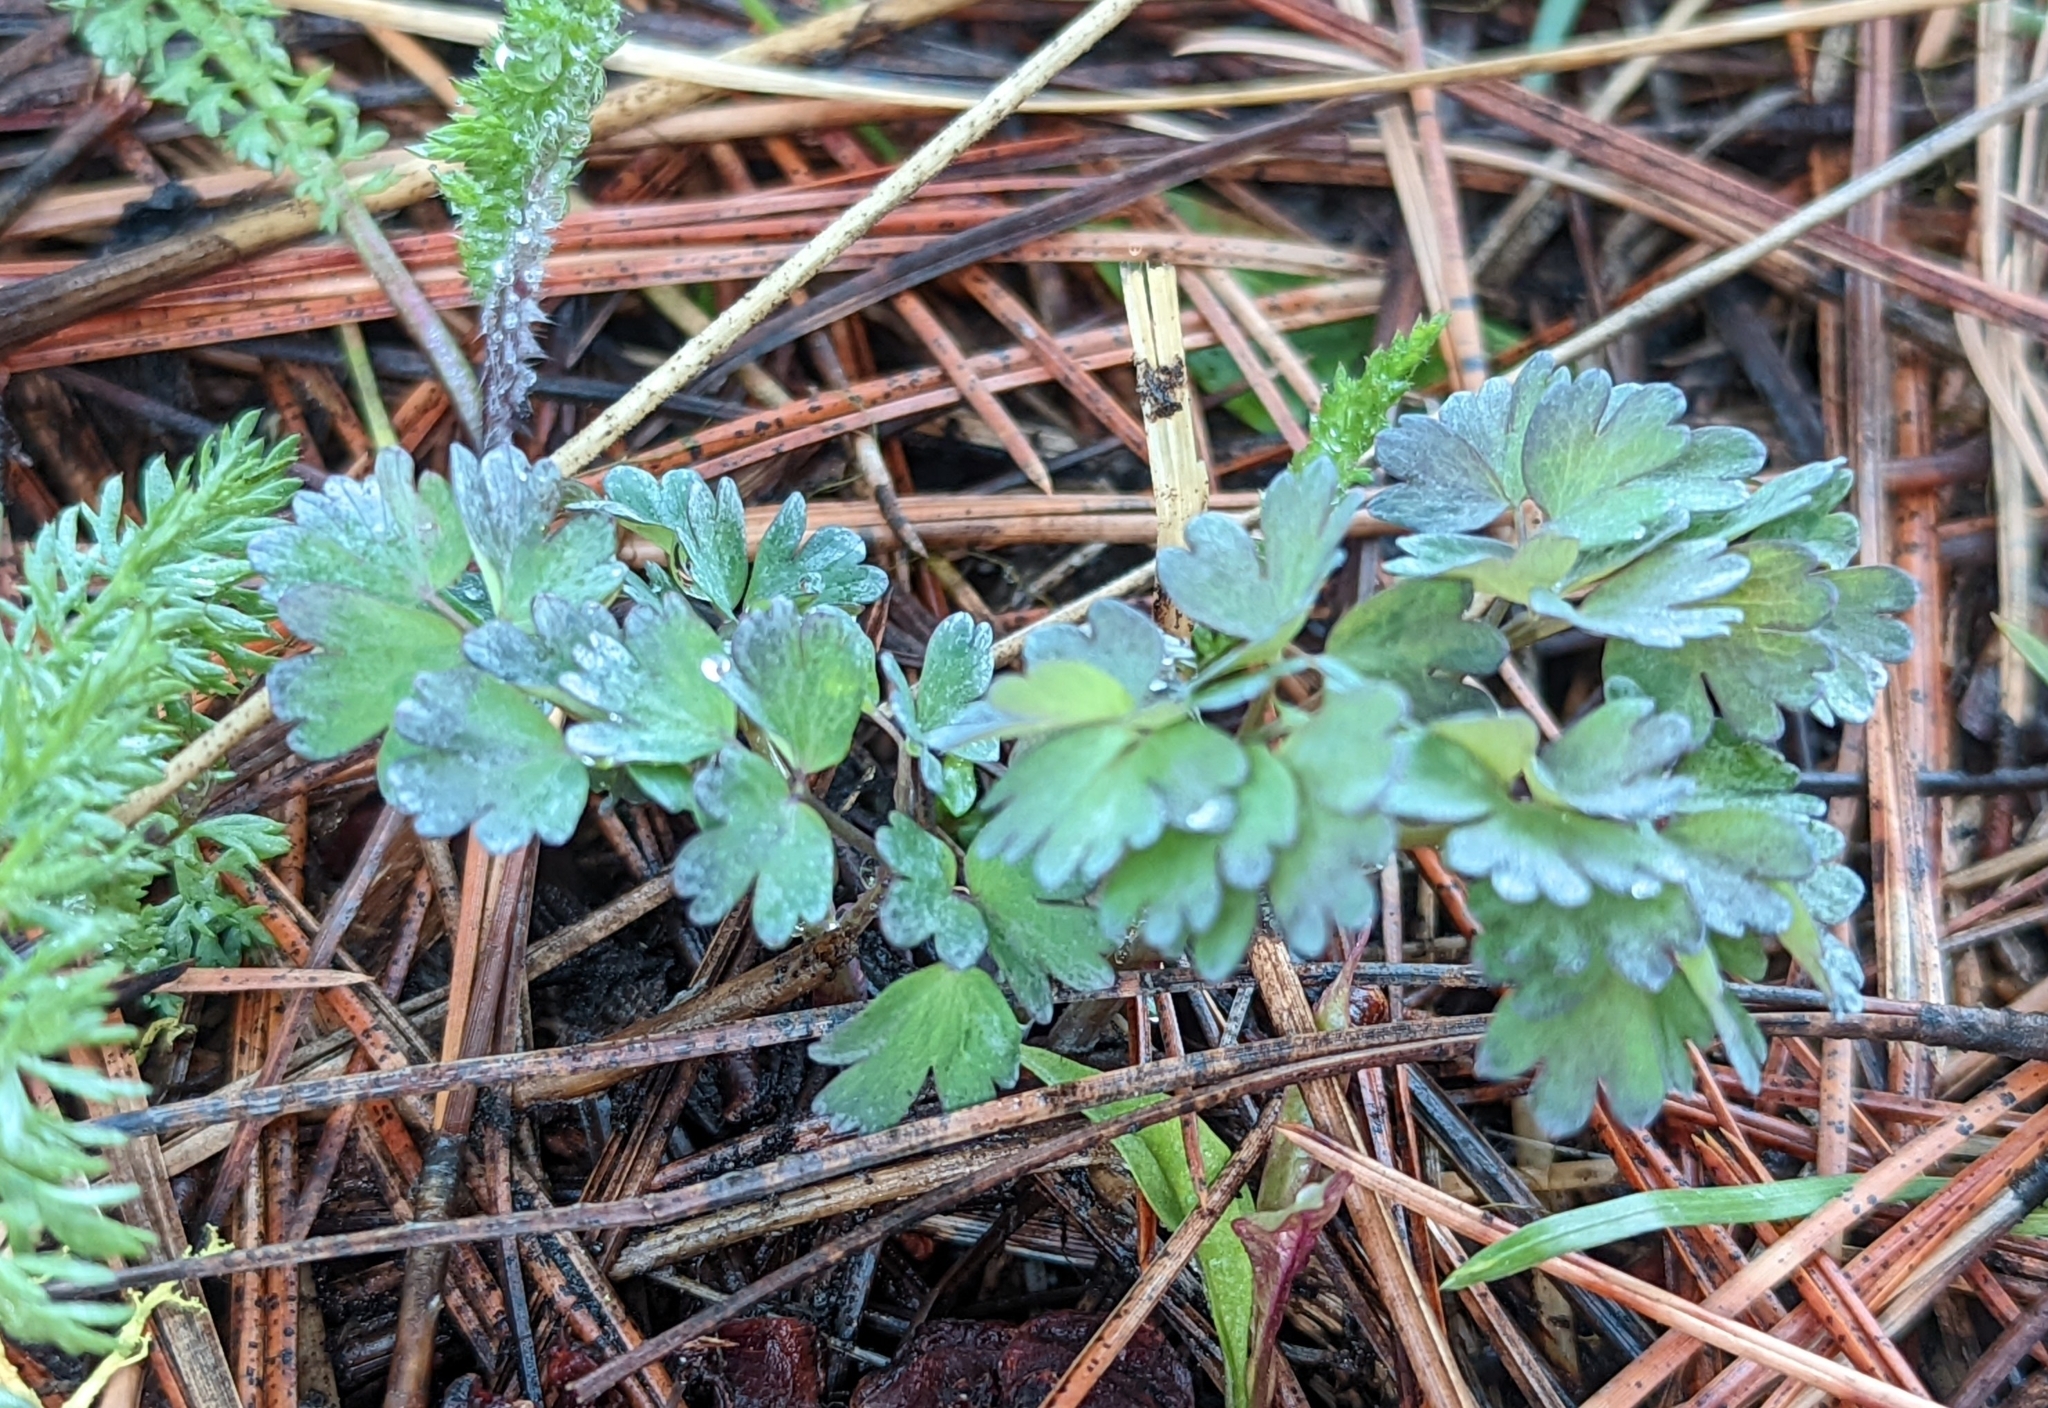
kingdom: Plantae
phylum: Tracheophyta
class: Magnoliopsida
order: Ranunculales
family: Ranunculaceae
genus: Thalictrum
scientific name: Thalictrum occidentale
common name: Western meadow-rue
